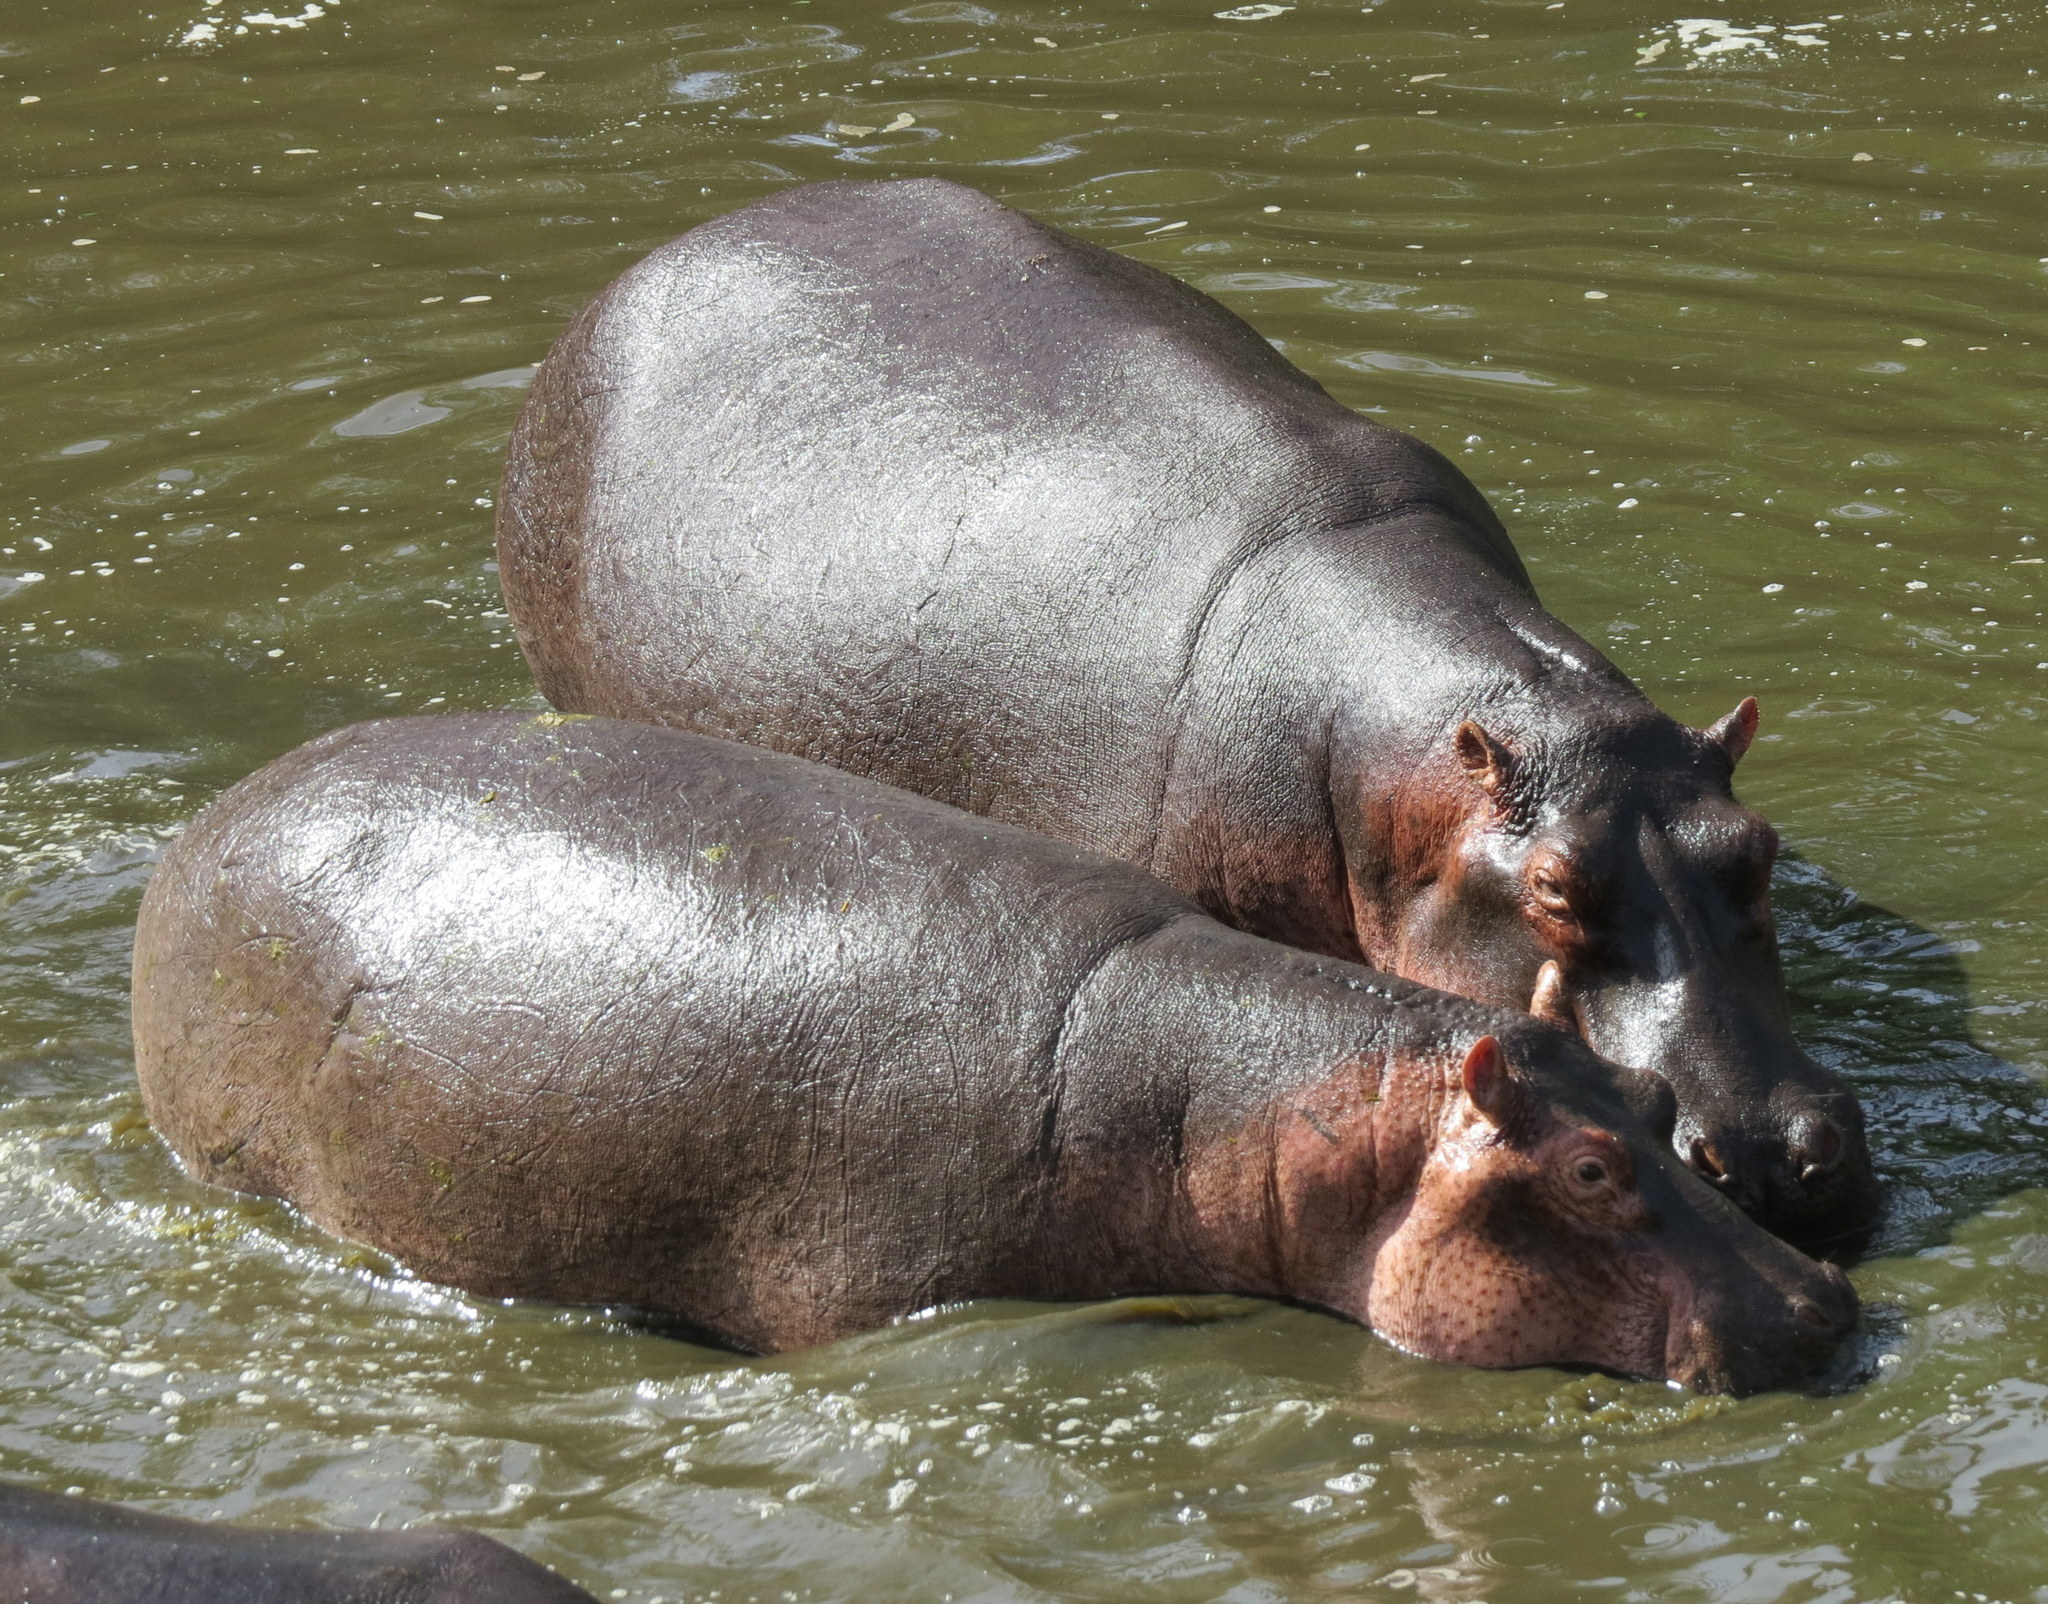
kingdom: Animalia
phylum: Chordata
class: Mammalia
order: Artiodactyla
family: Hippopotamidae
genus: Hippopotamus
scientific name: Hippopotamus amphibius
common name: Common hippopotamus
